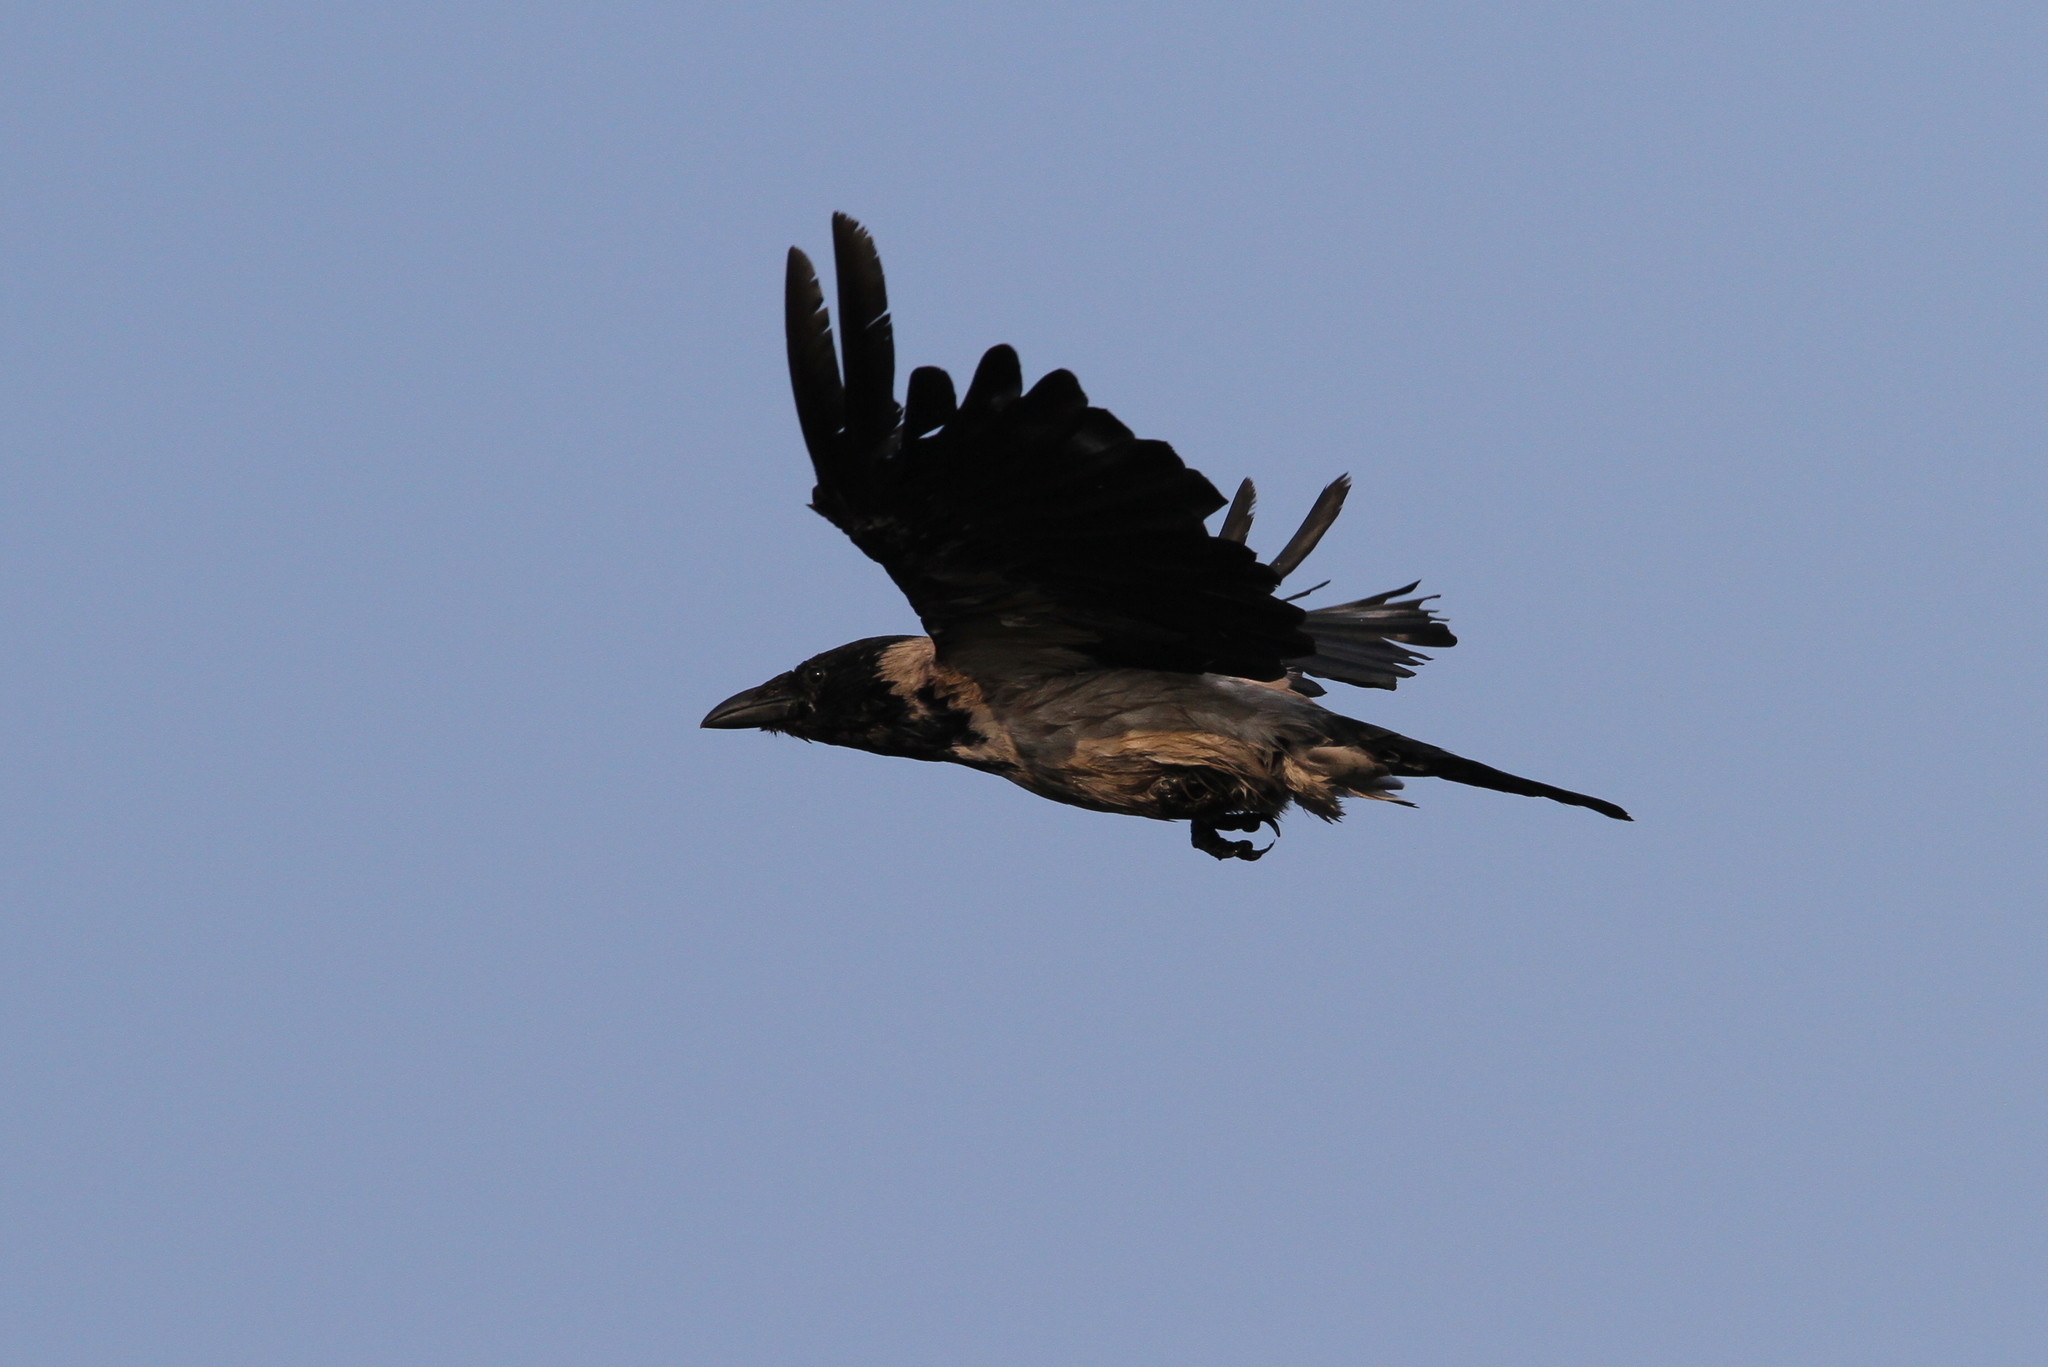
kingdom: Animalia
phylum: Chordata
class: Aves
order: Passeriformes
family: Corvidae
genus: Corvus
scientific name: Corvus cornix
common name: Hooded crow
